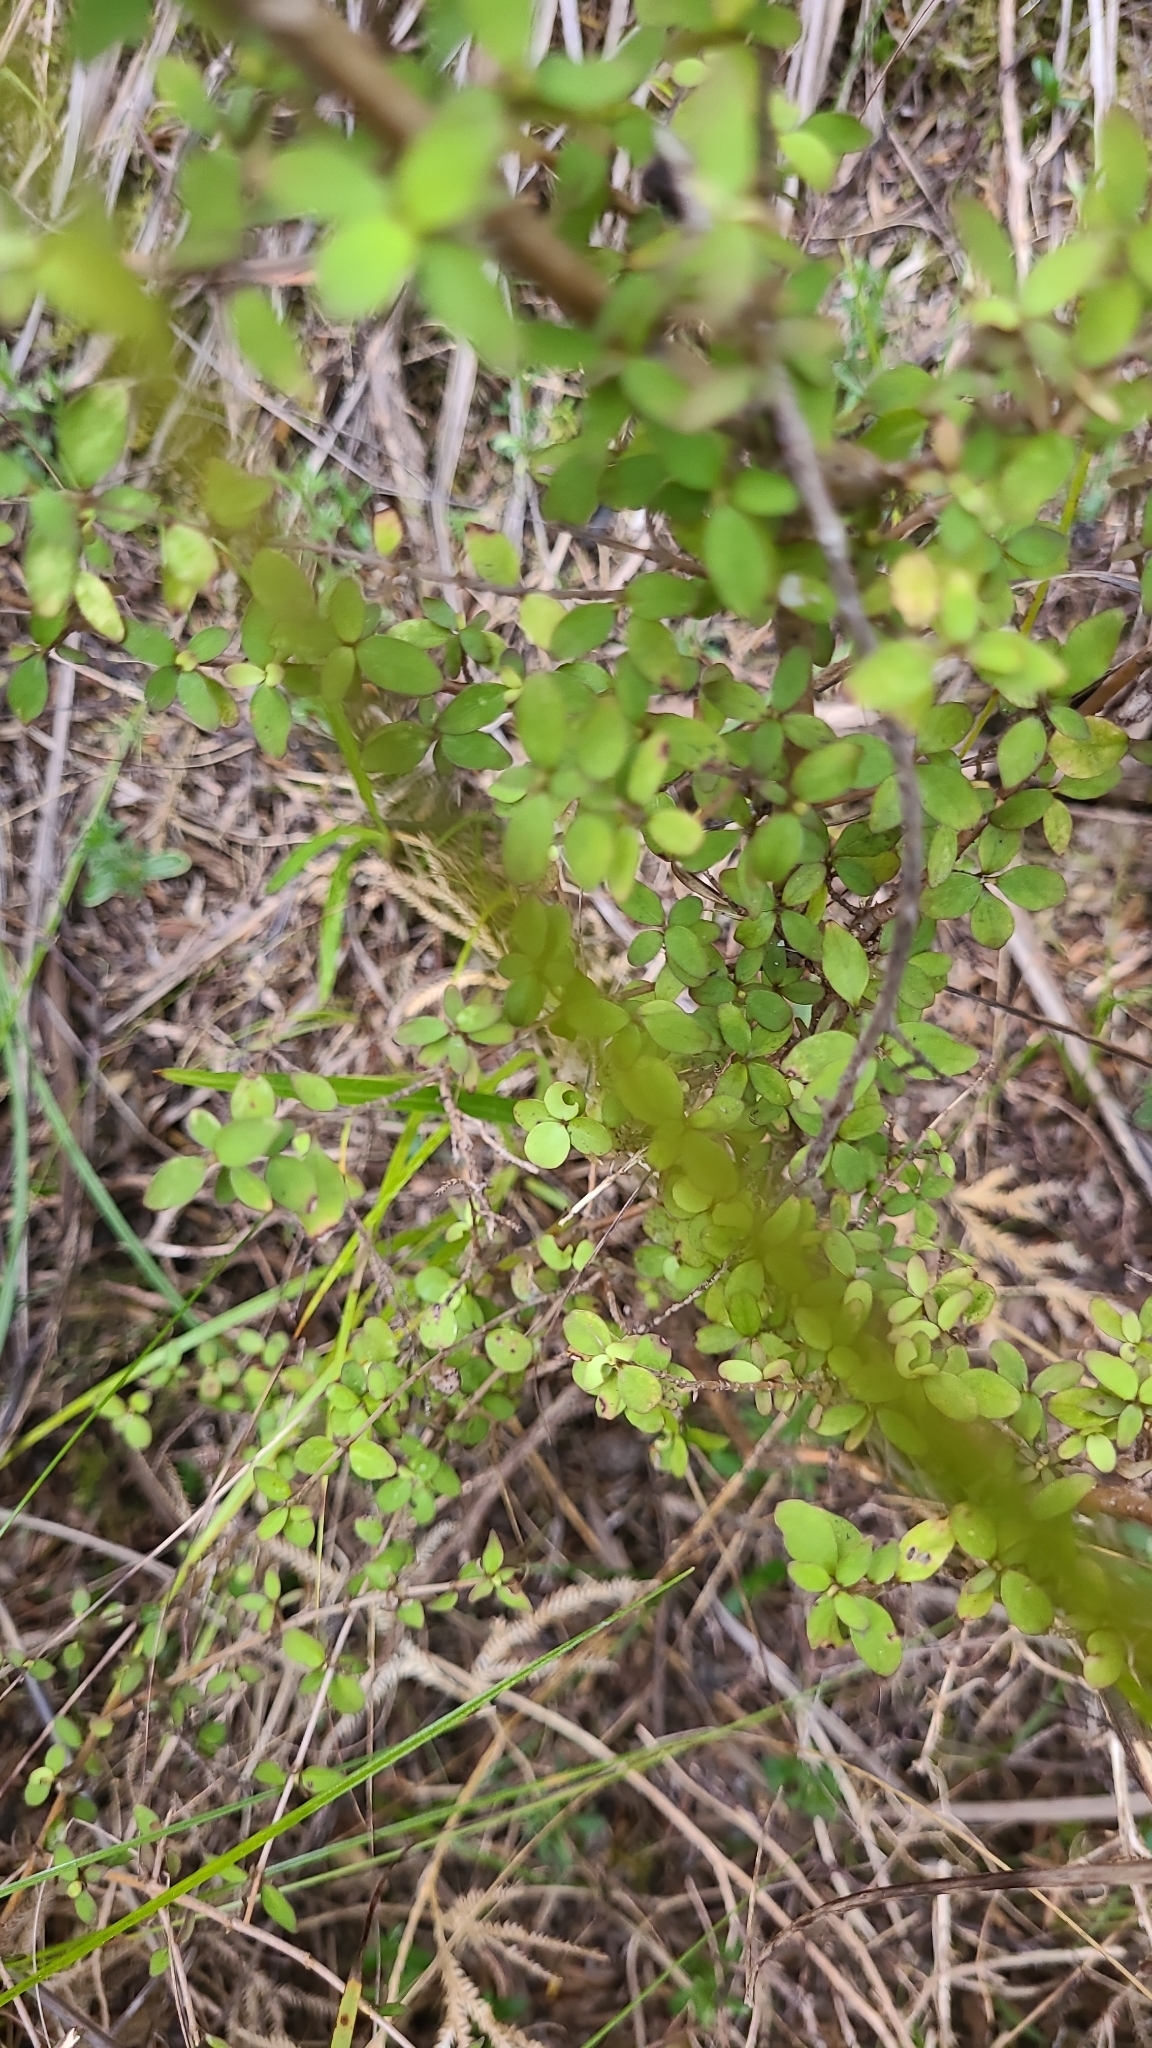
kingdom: Plantae
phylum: Tracheophyta
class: Magnoliopsida
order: Gentianales
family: Rubiaceae
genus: Coprosma
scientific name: Coprosma rhamnoides
